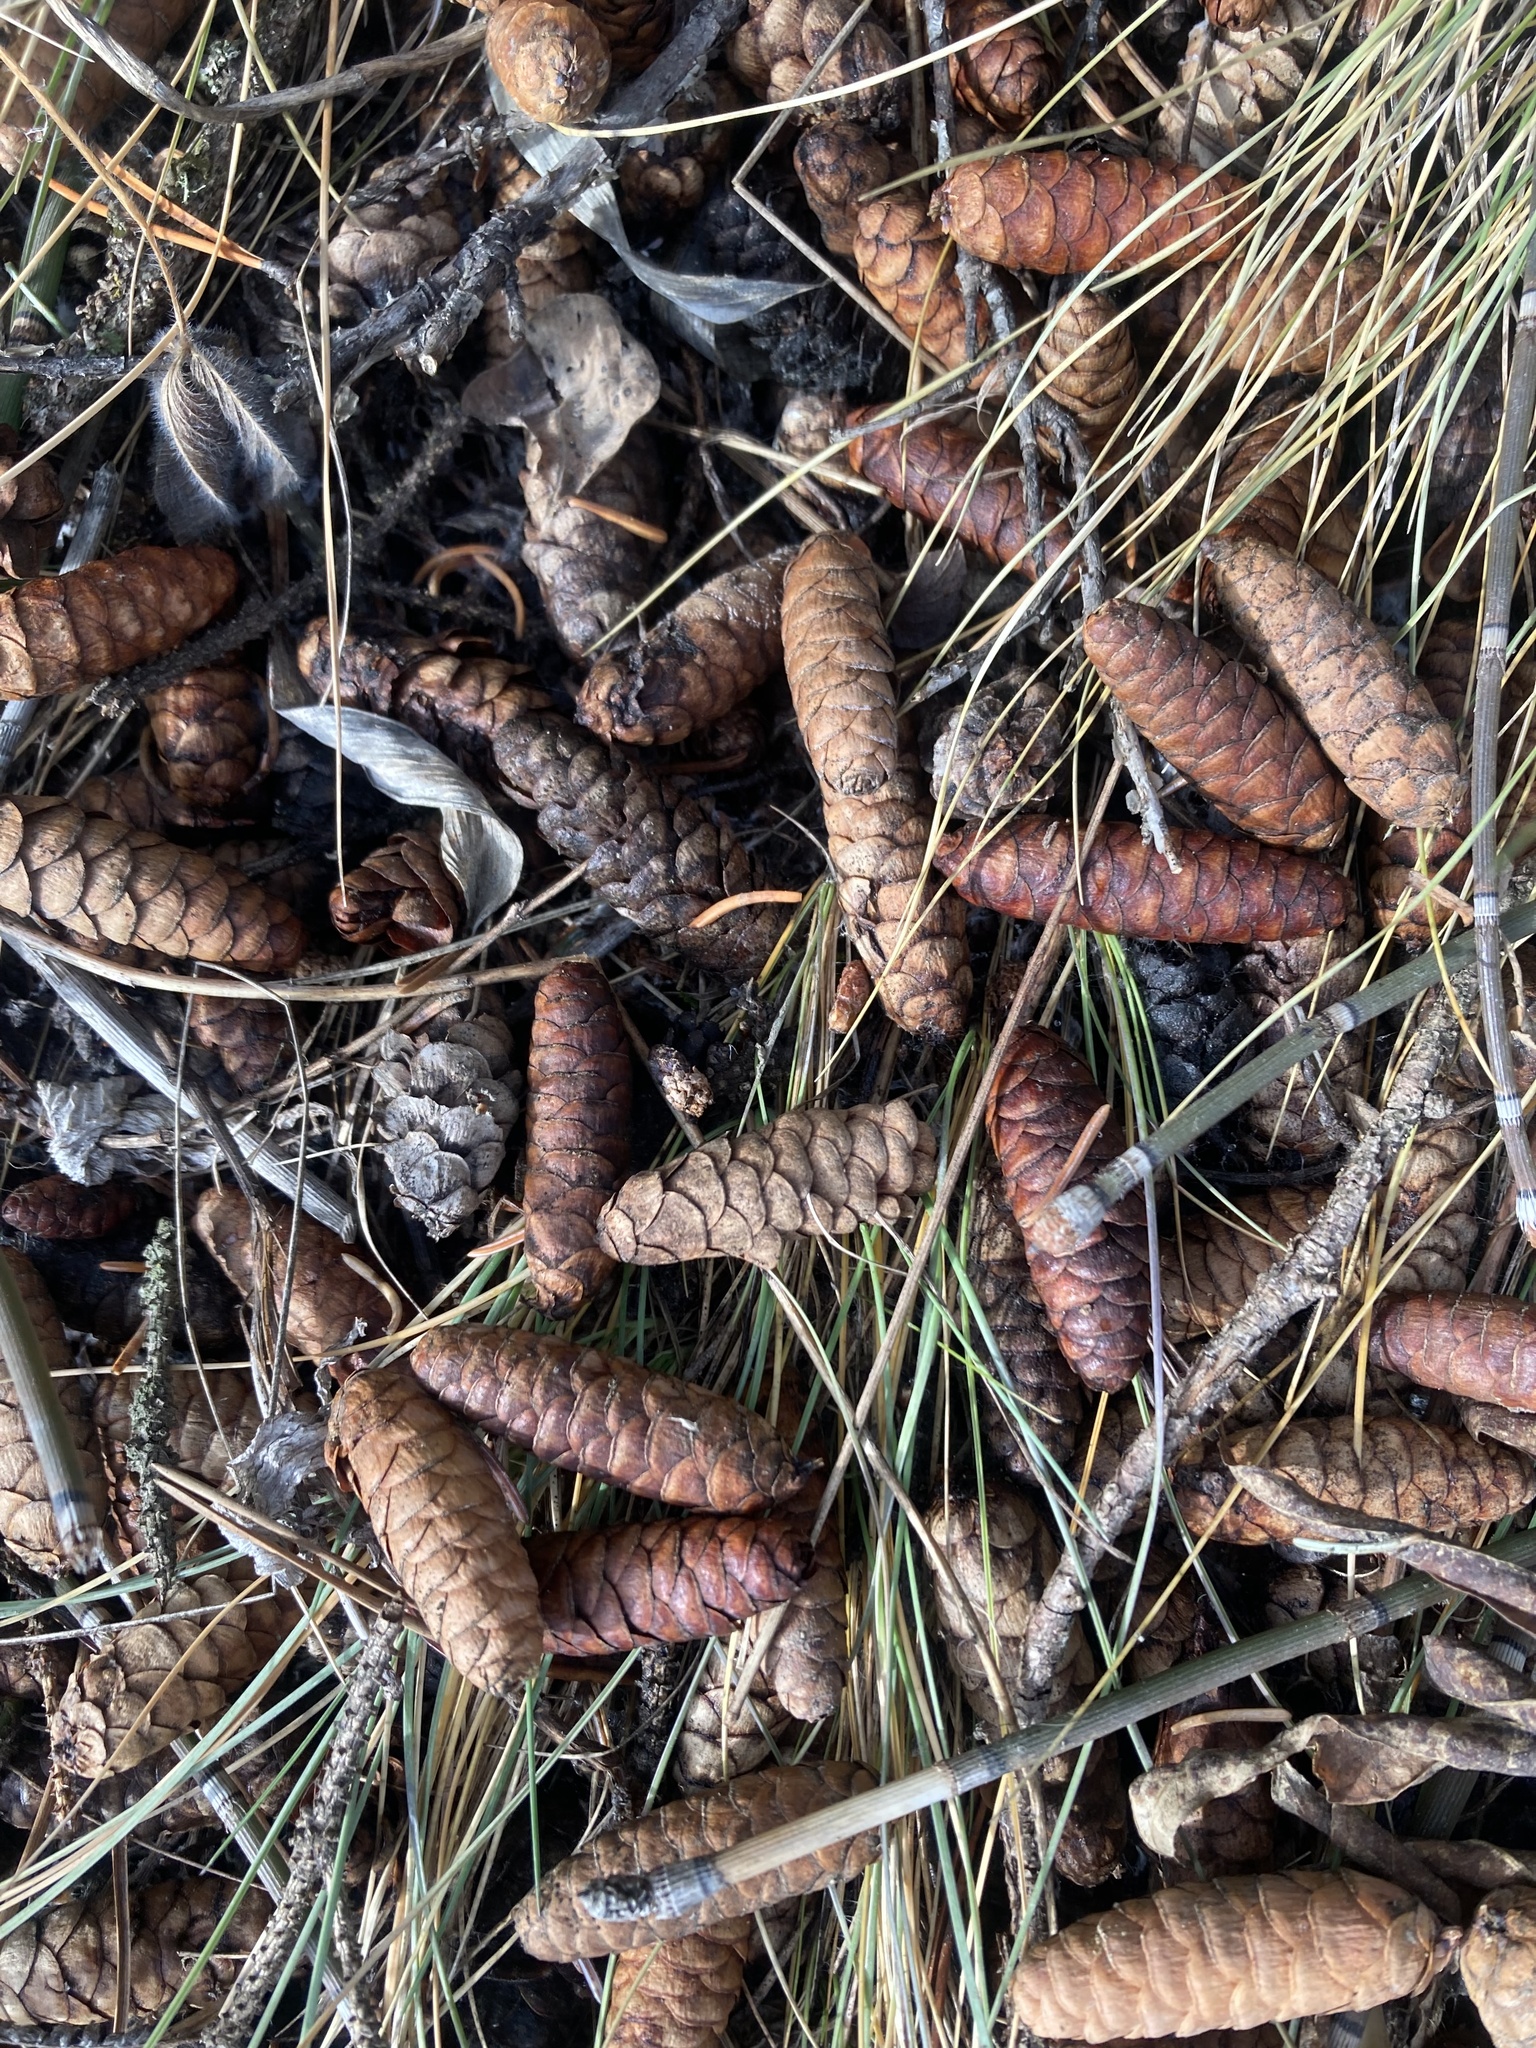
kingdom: Plantae
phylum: Tracheophyta
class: Pinopsida
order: Pinales
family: Pinaceae
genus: Picea
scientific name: Picea glauca
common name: White spruce
